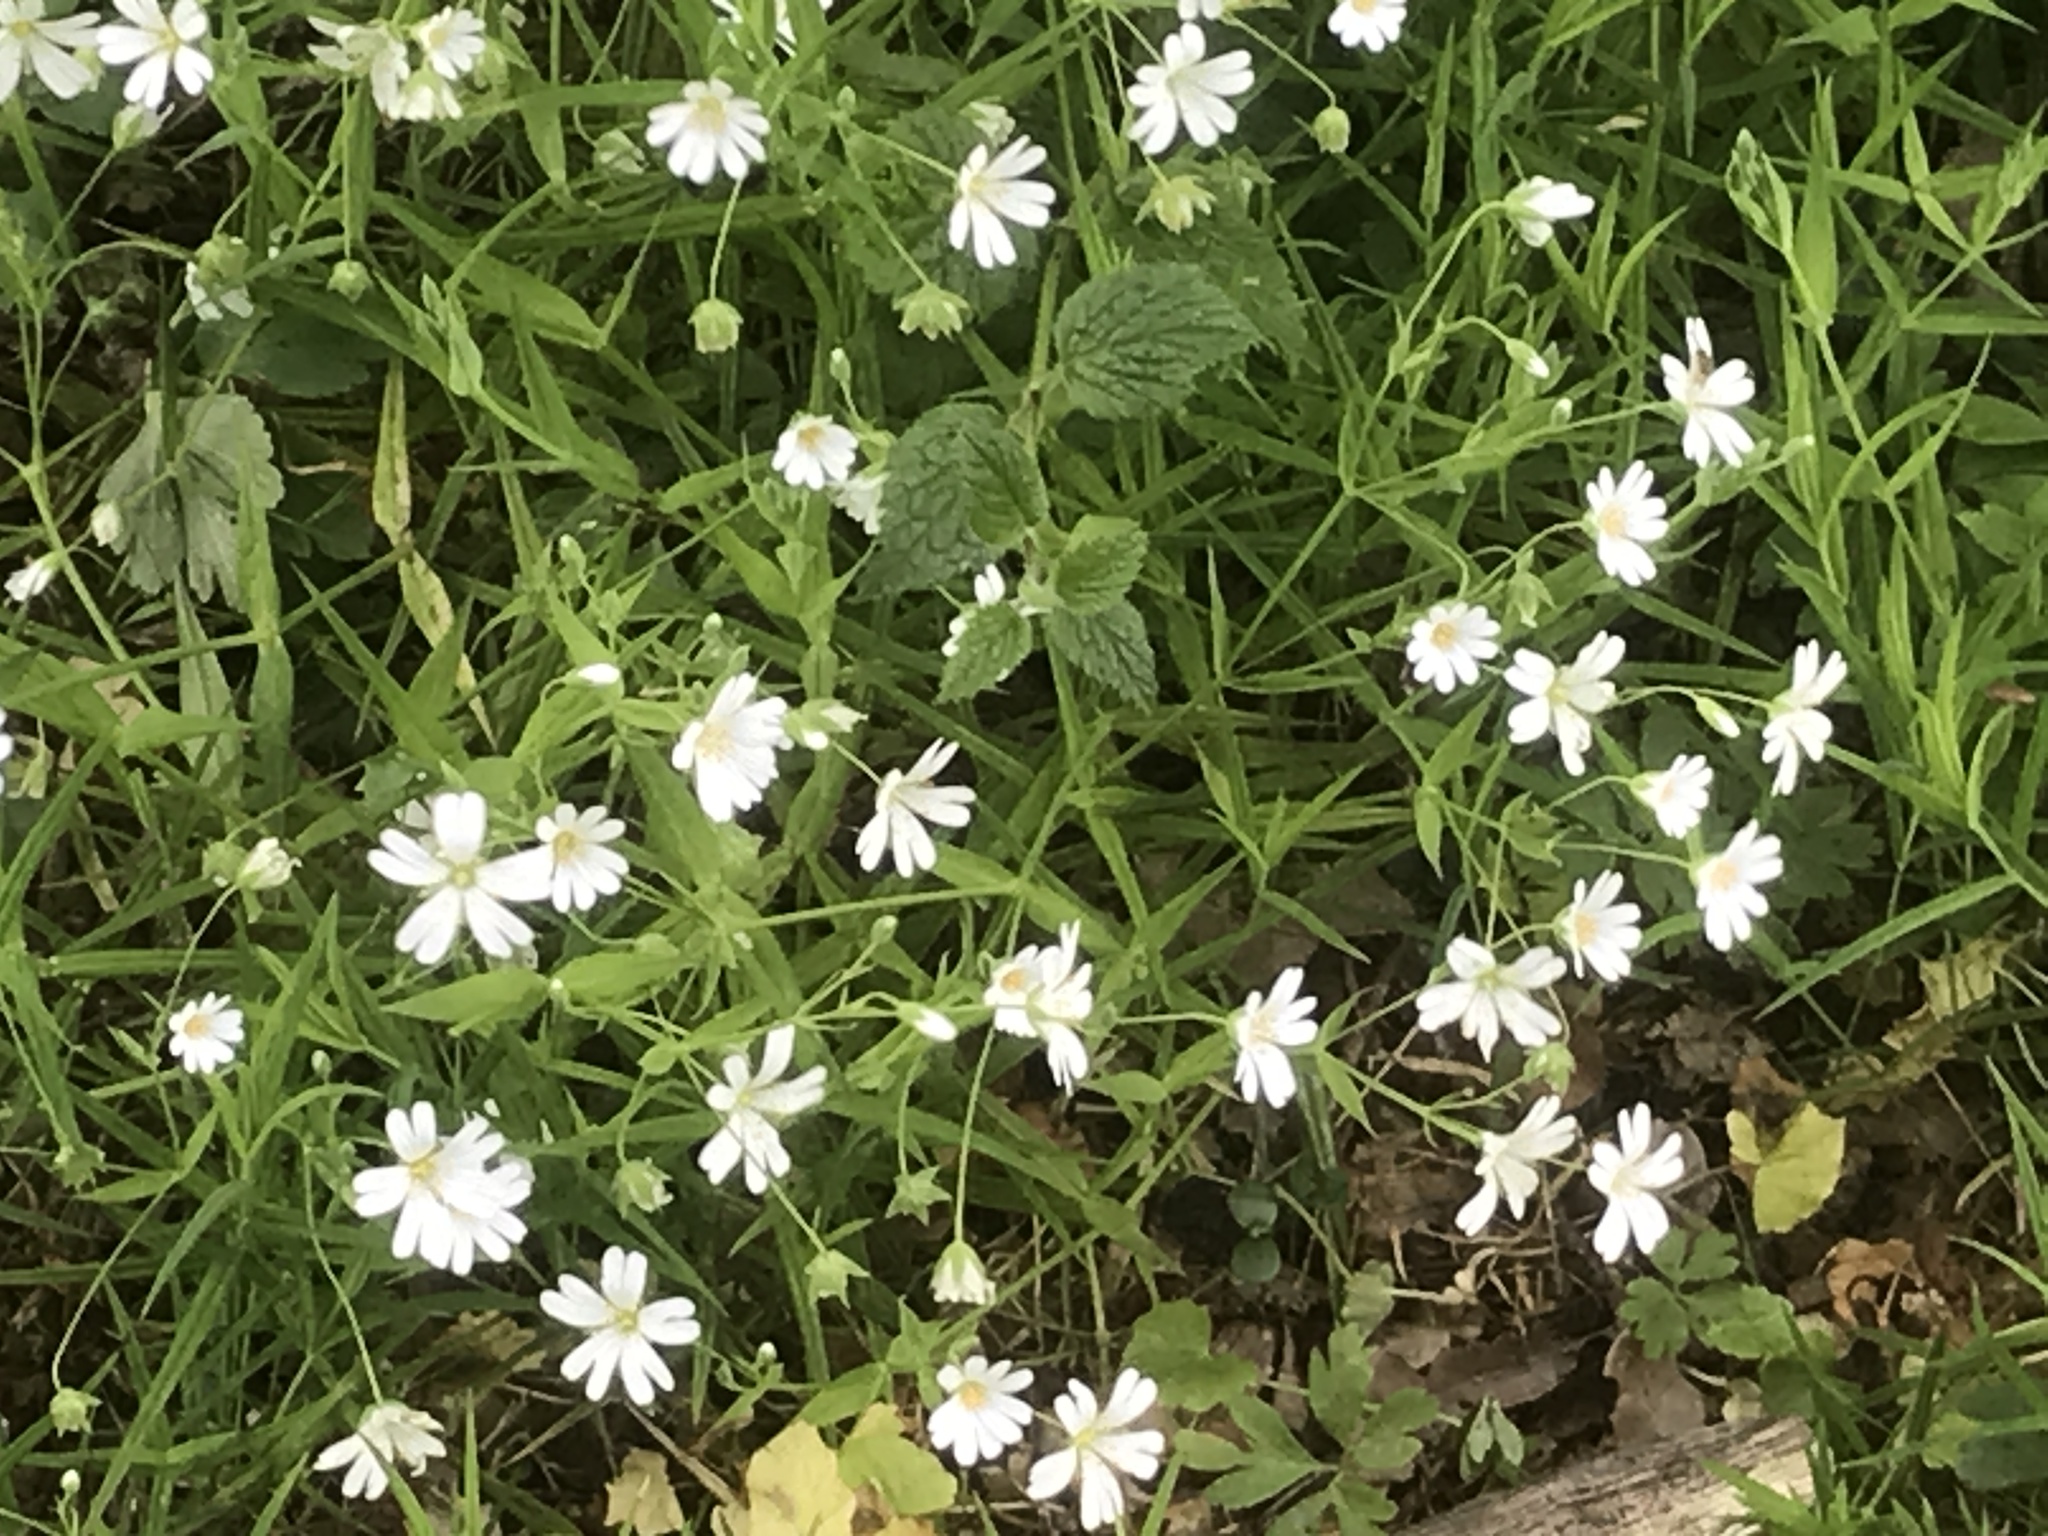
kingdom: Plantae
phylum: Tracheophyta
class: Magnoliopsida
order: Caryophyllales
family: Caryophyllaceae
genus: Rabelera
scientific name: Rabelera holostea
